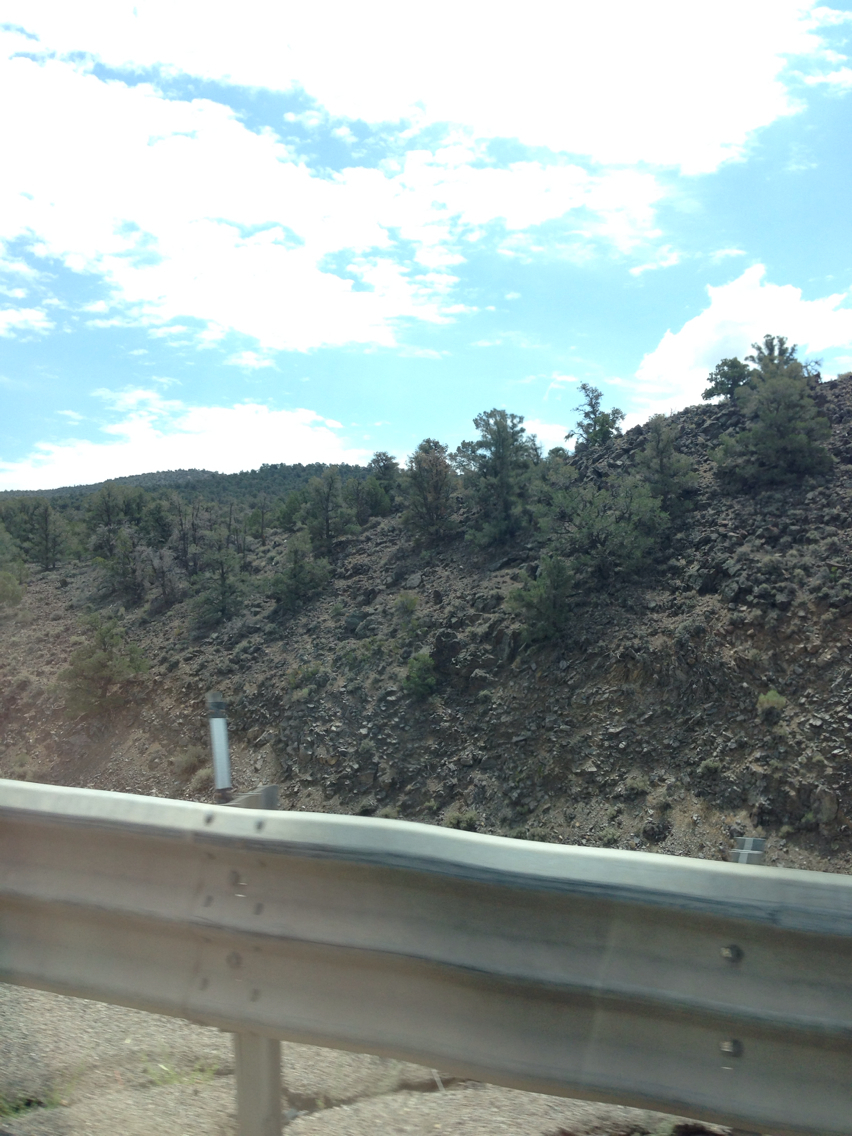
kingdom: Plantae
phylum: Tracheophyta
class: Pinopsida
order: Pinales
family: Pinaceae
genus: Pinus
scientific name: Pinus monophylla
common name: One-leaved nut pine
